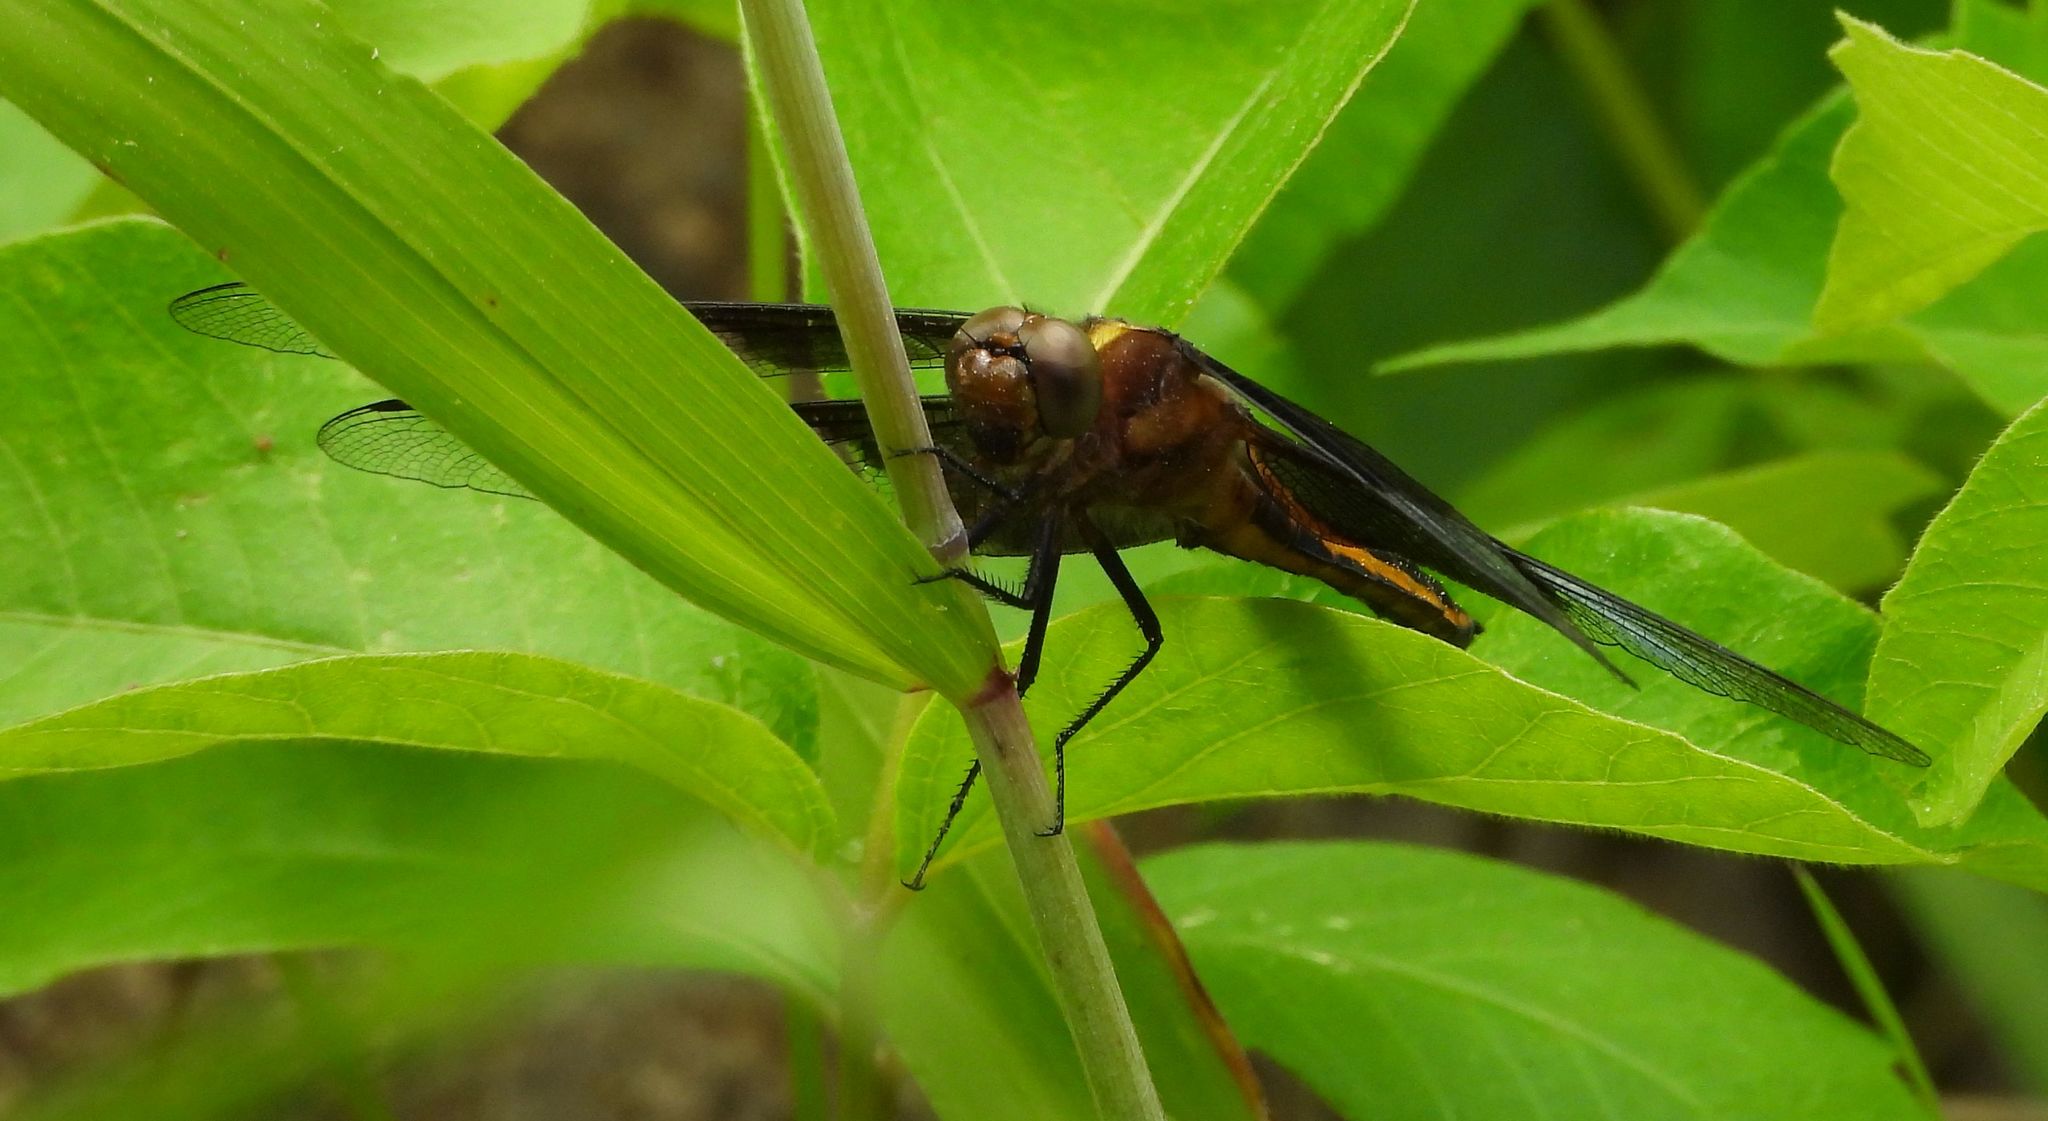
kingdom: Animalia
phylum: Arthropoda
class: Insecta
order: Odonata
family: Libellulidae
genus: Libellula
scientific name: Libellula luctuosa
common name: Widow skimmer
